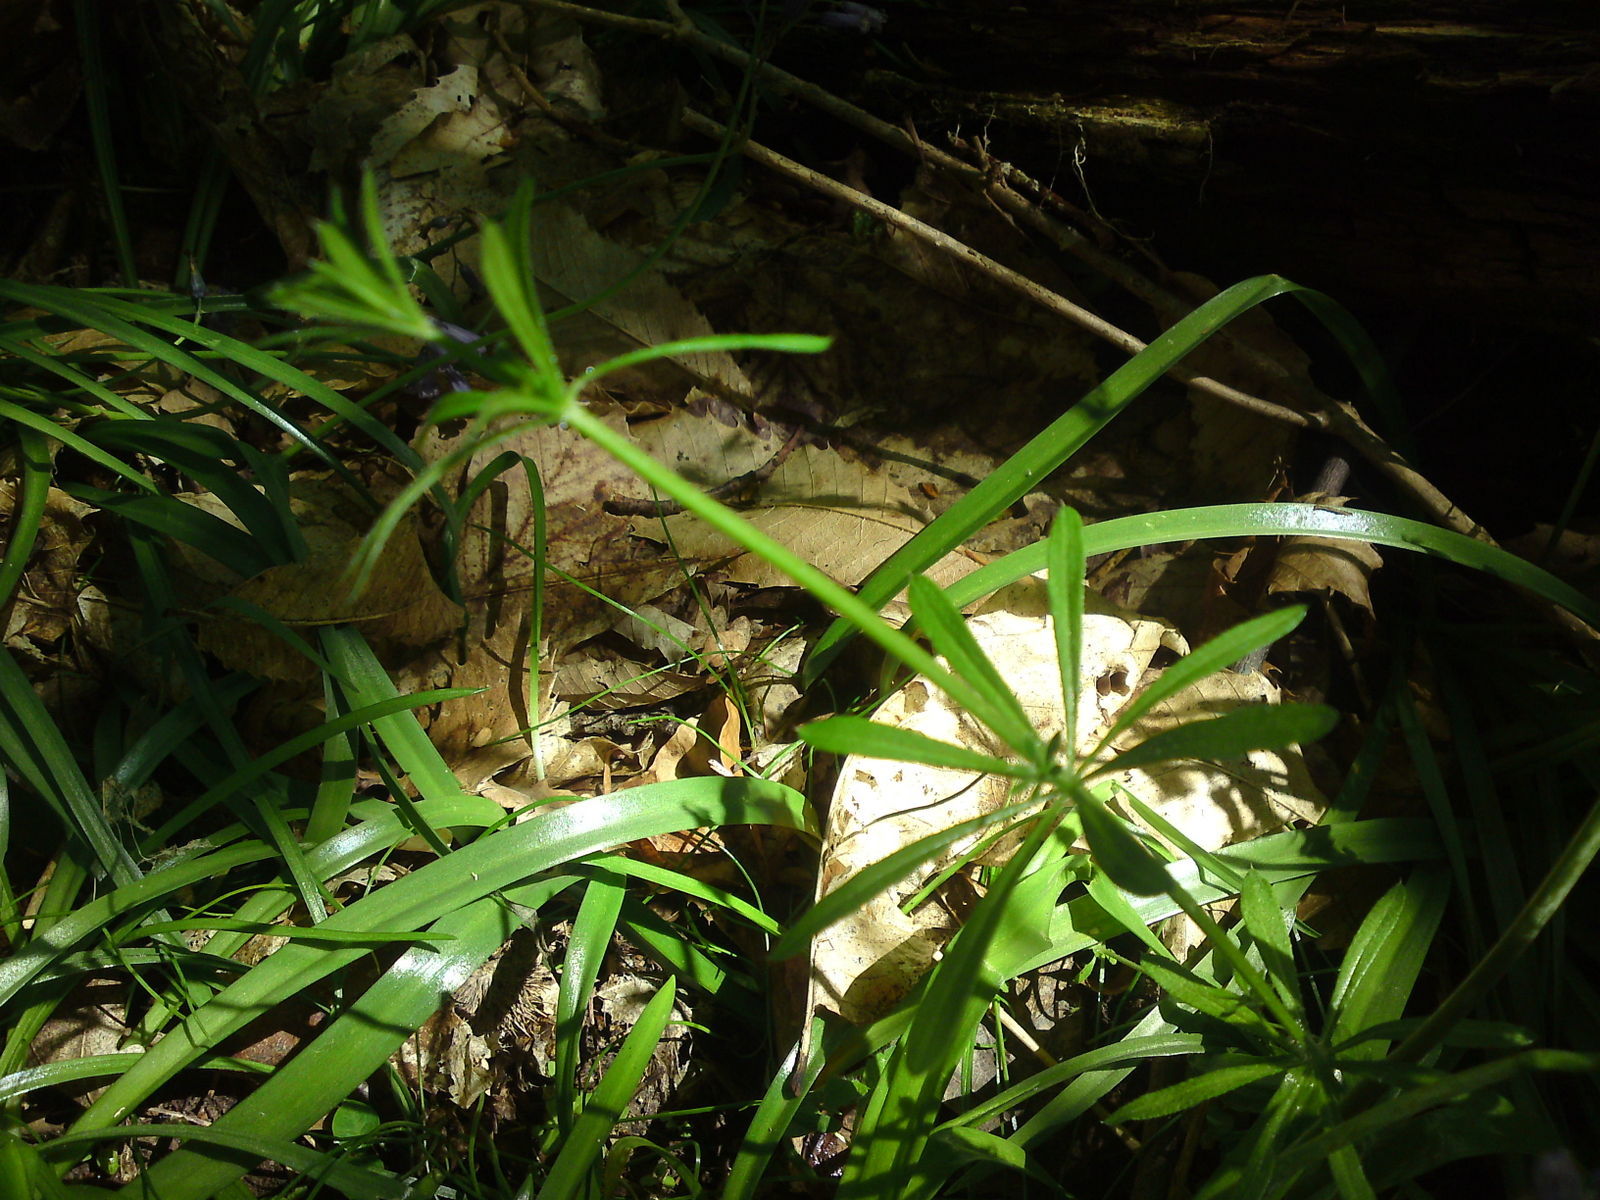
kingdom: Plantae
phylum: Tracheophyta
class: Magnoliopsida
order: Gentianales
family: Rubiaceae
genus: Galium
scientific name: Galium aparine
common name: Cleavers
